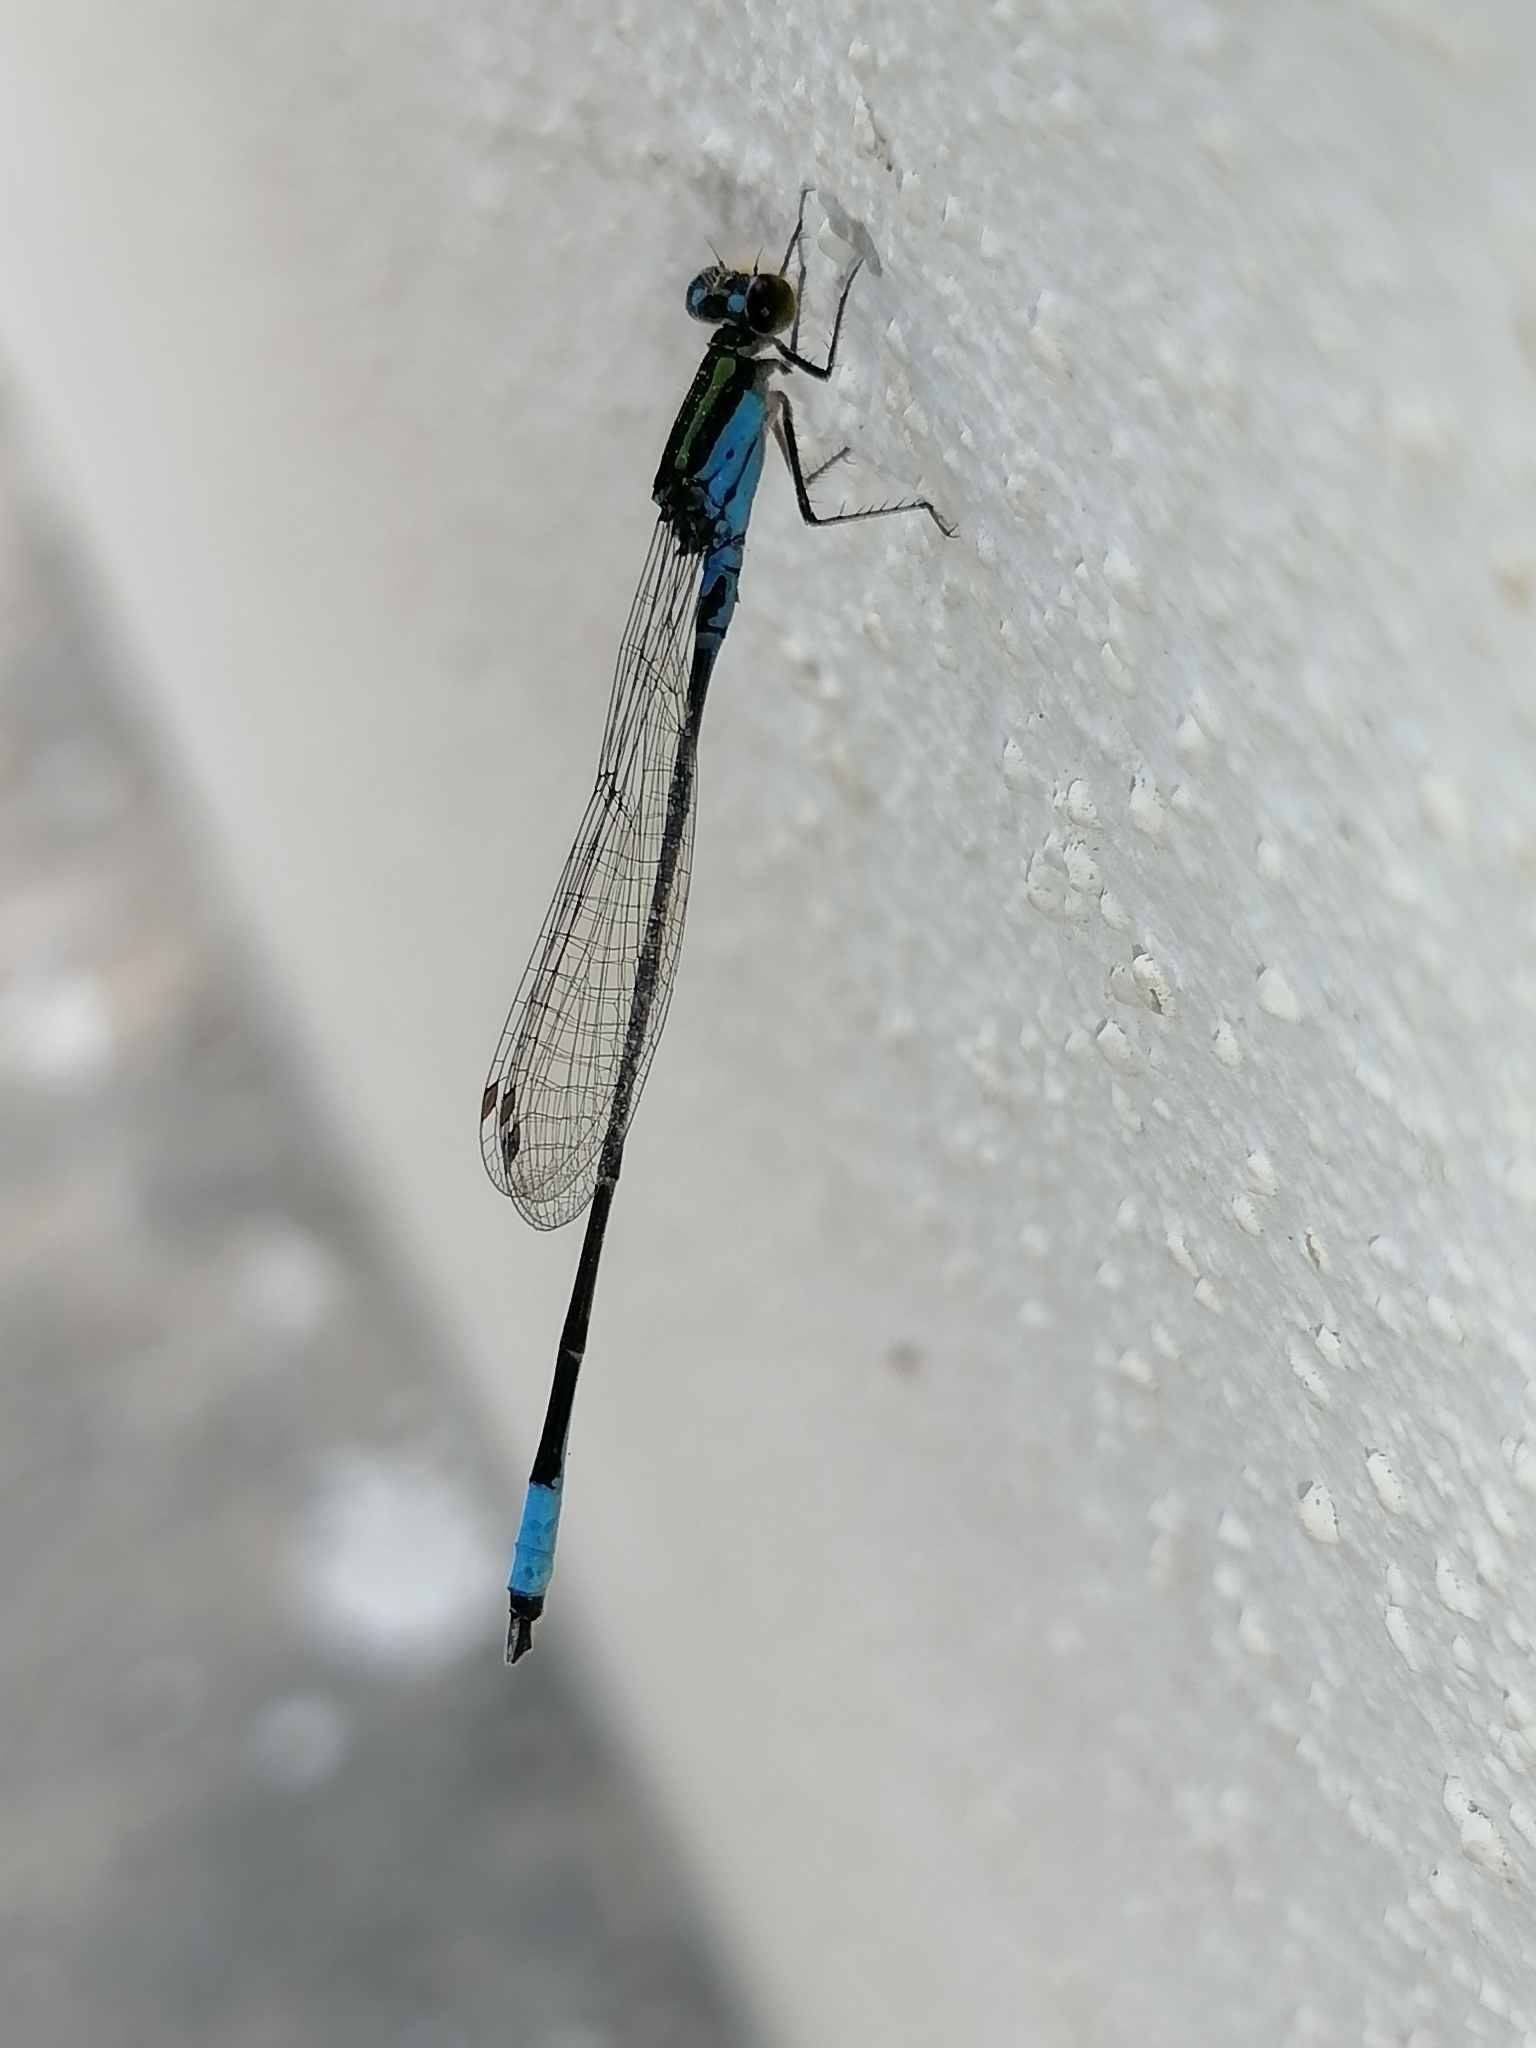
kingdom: Animalia
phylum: Arthropoda
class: Insecta
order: Odonata
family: Coenagrionidae
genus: Neoerythromma
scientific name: Neoerythromma cultellatum
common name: Caribbean yellowface
